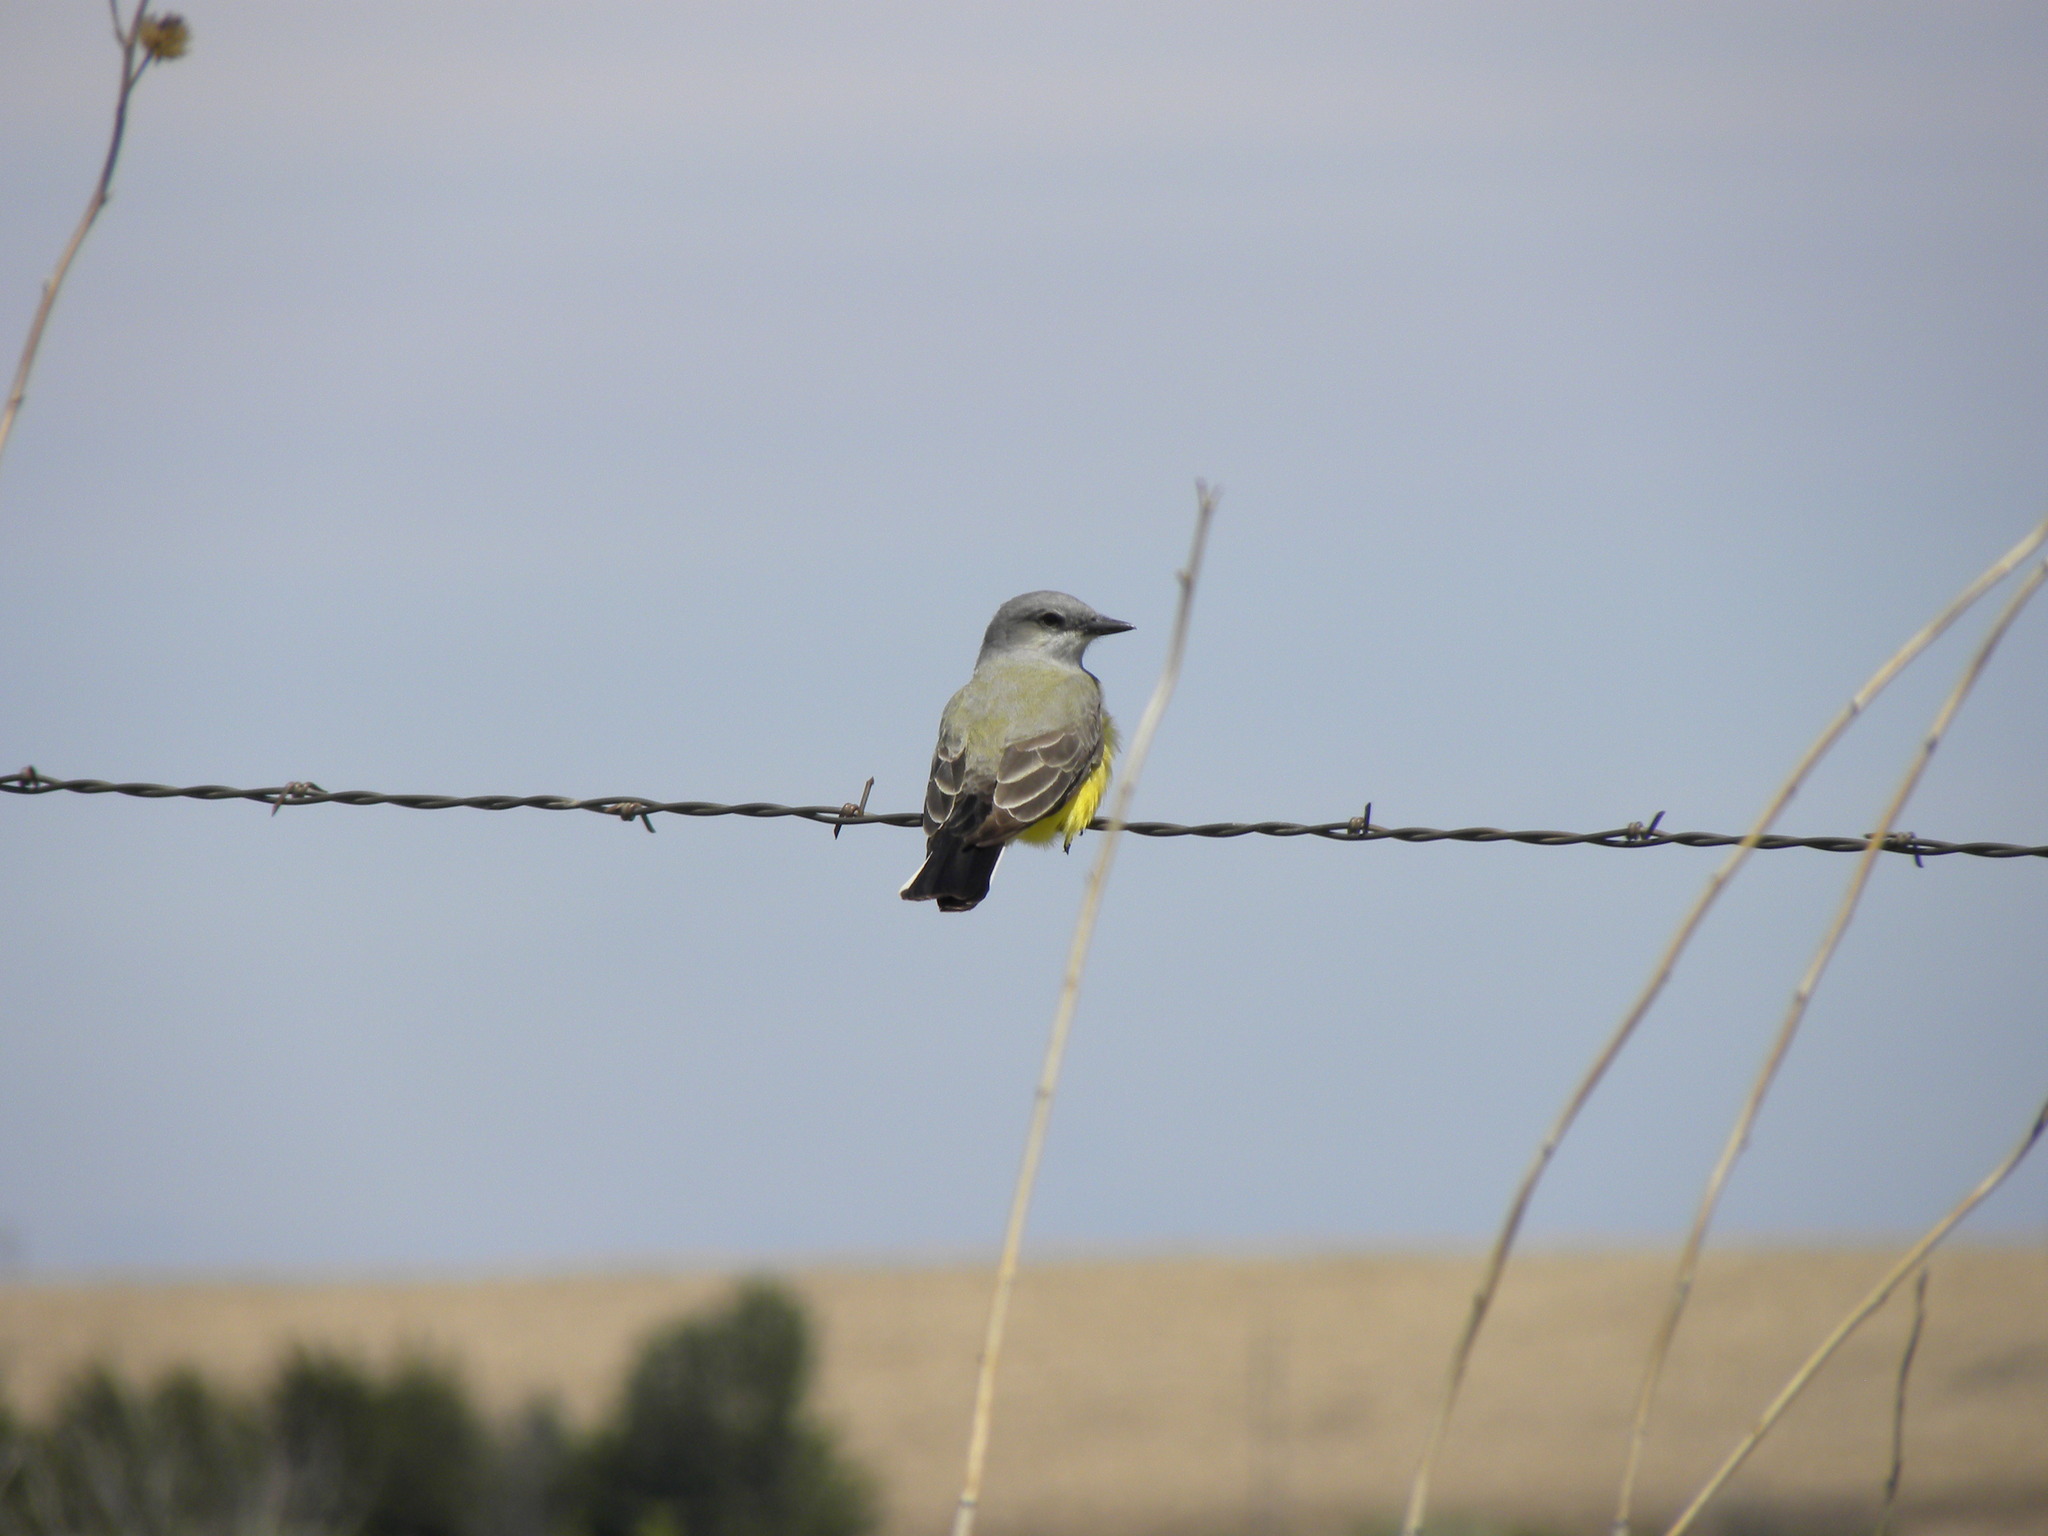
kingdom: Animalia
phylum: Chordata
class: Aves
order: Passeriformes
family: Tyrannidae
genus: Tyrannus
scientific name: Tyrannus verticalis
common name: Western kingbird
